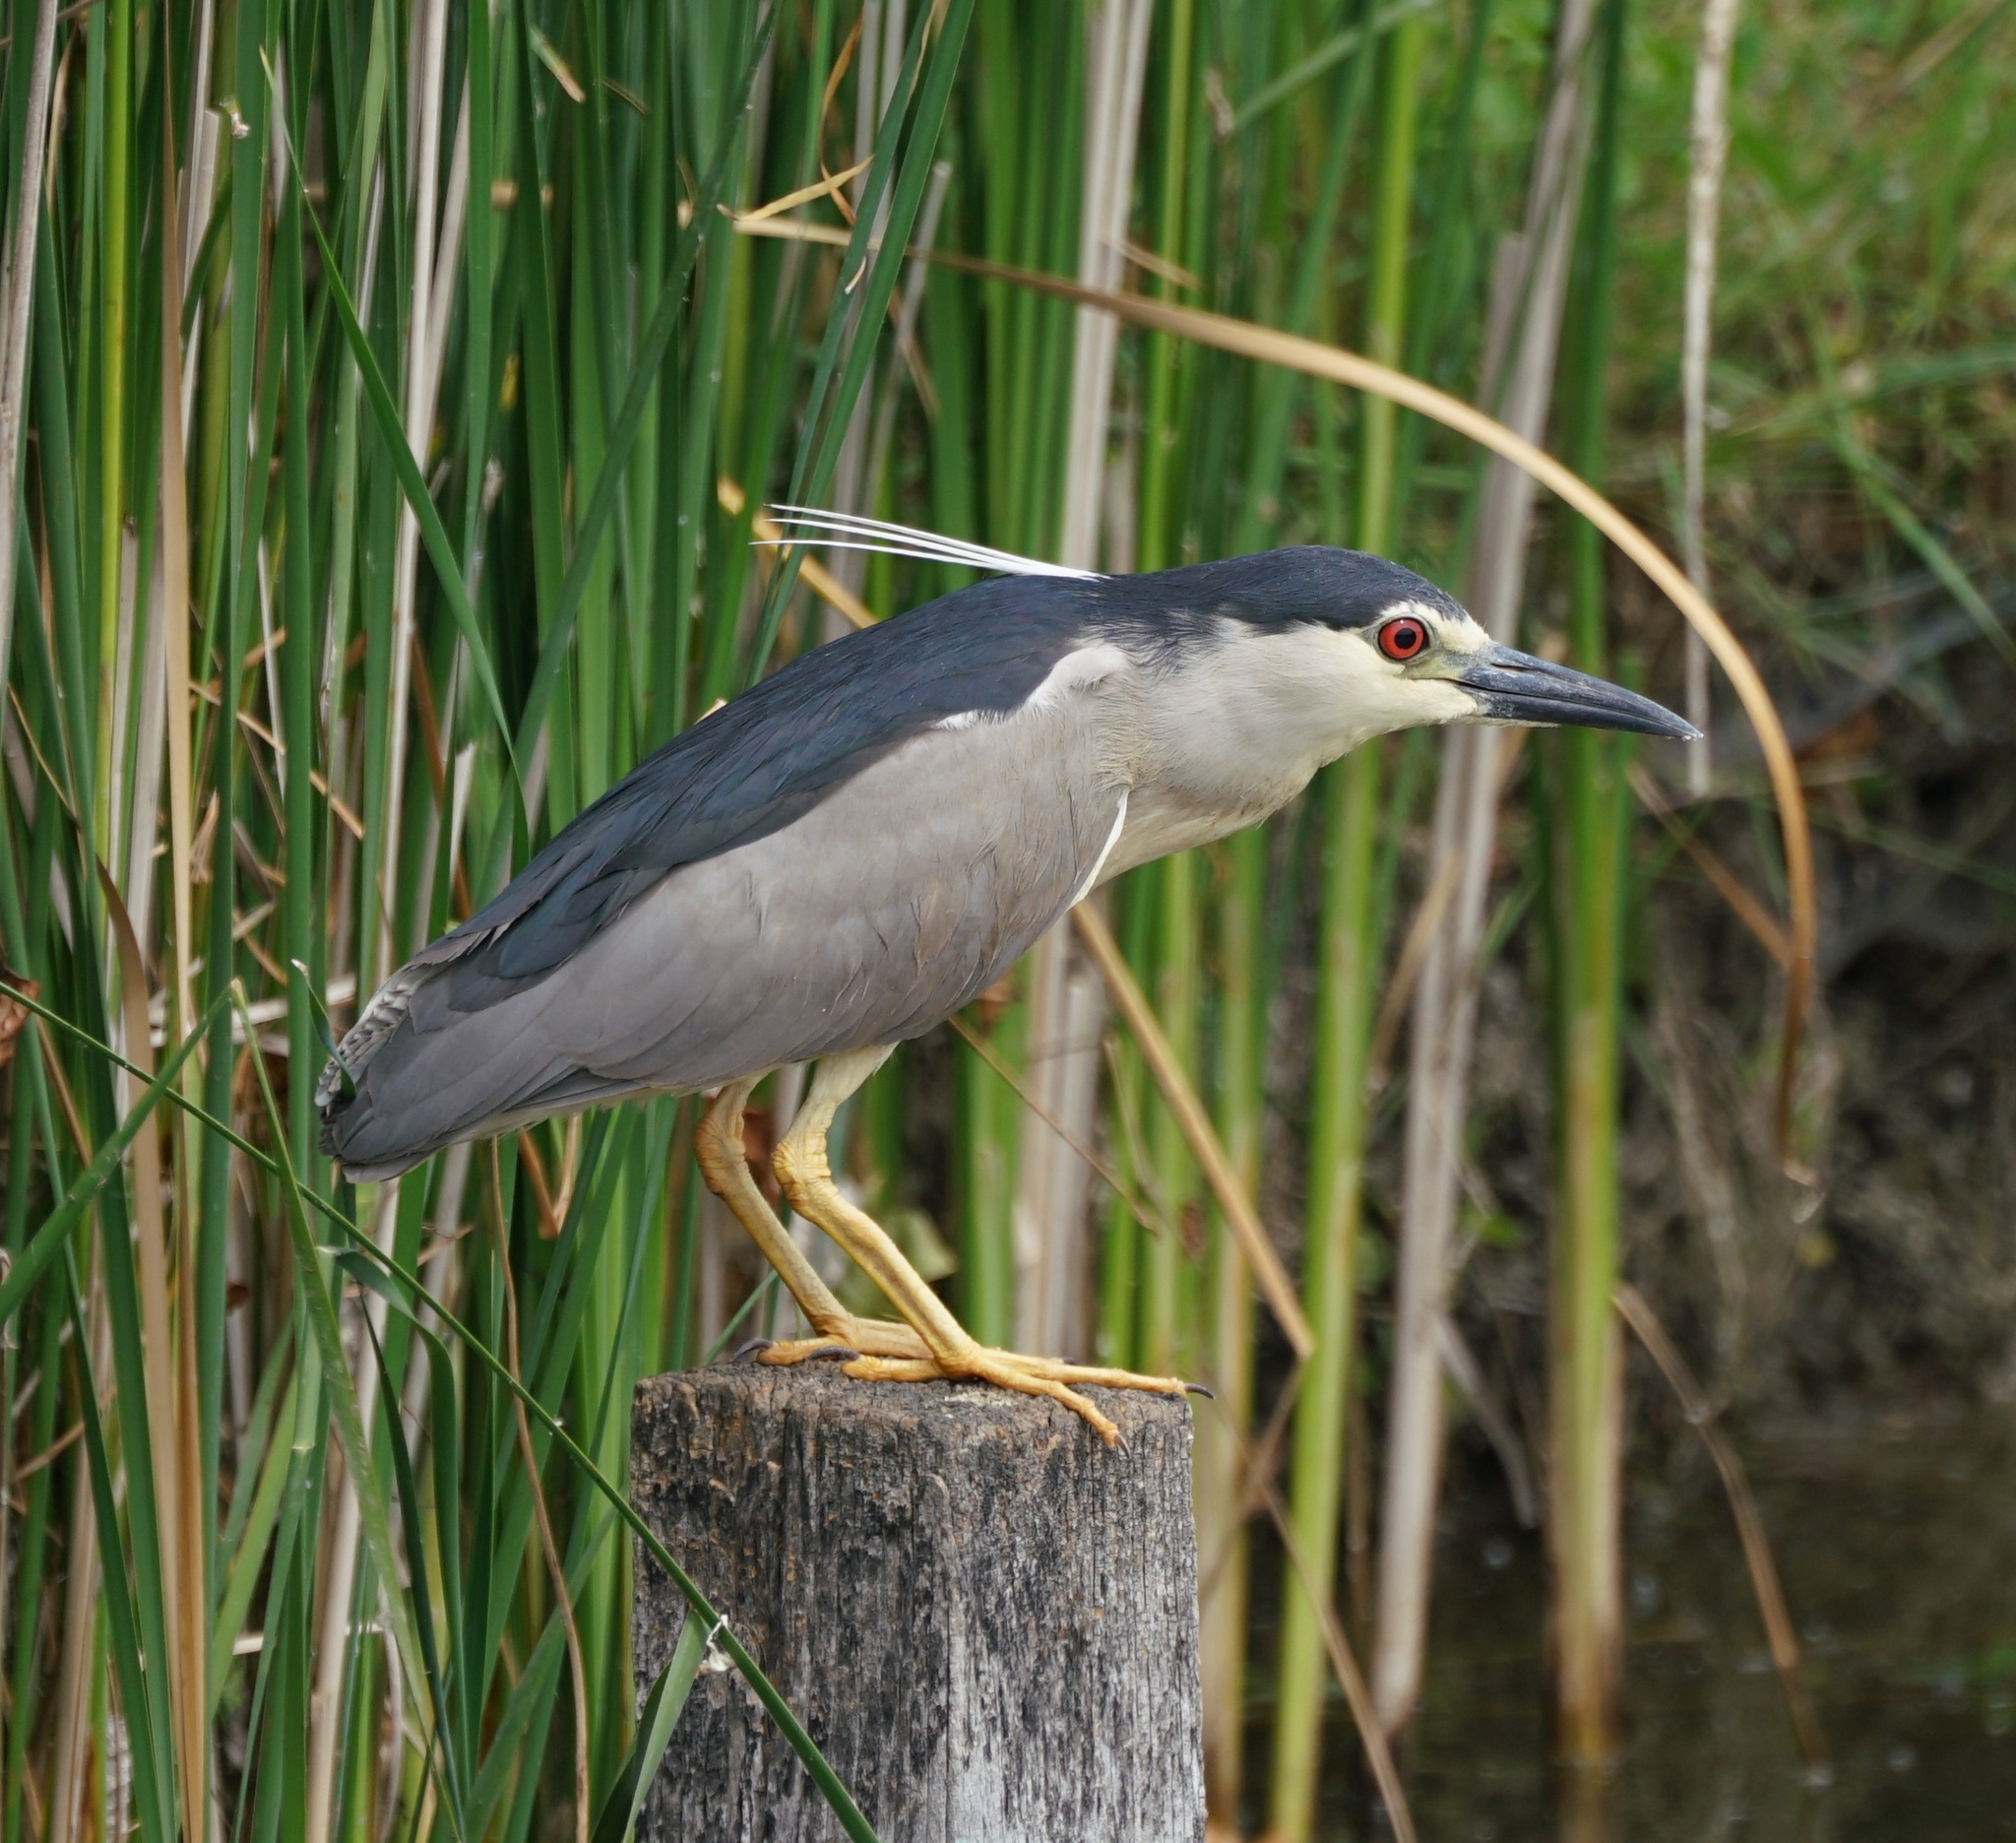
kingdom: Animalia
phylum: Chordata
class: Aves
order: Pelecaniformes
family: Ardeidae
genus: Nycticorax
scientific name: Nycticorax nycticorax
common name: Black-crowned night heron
